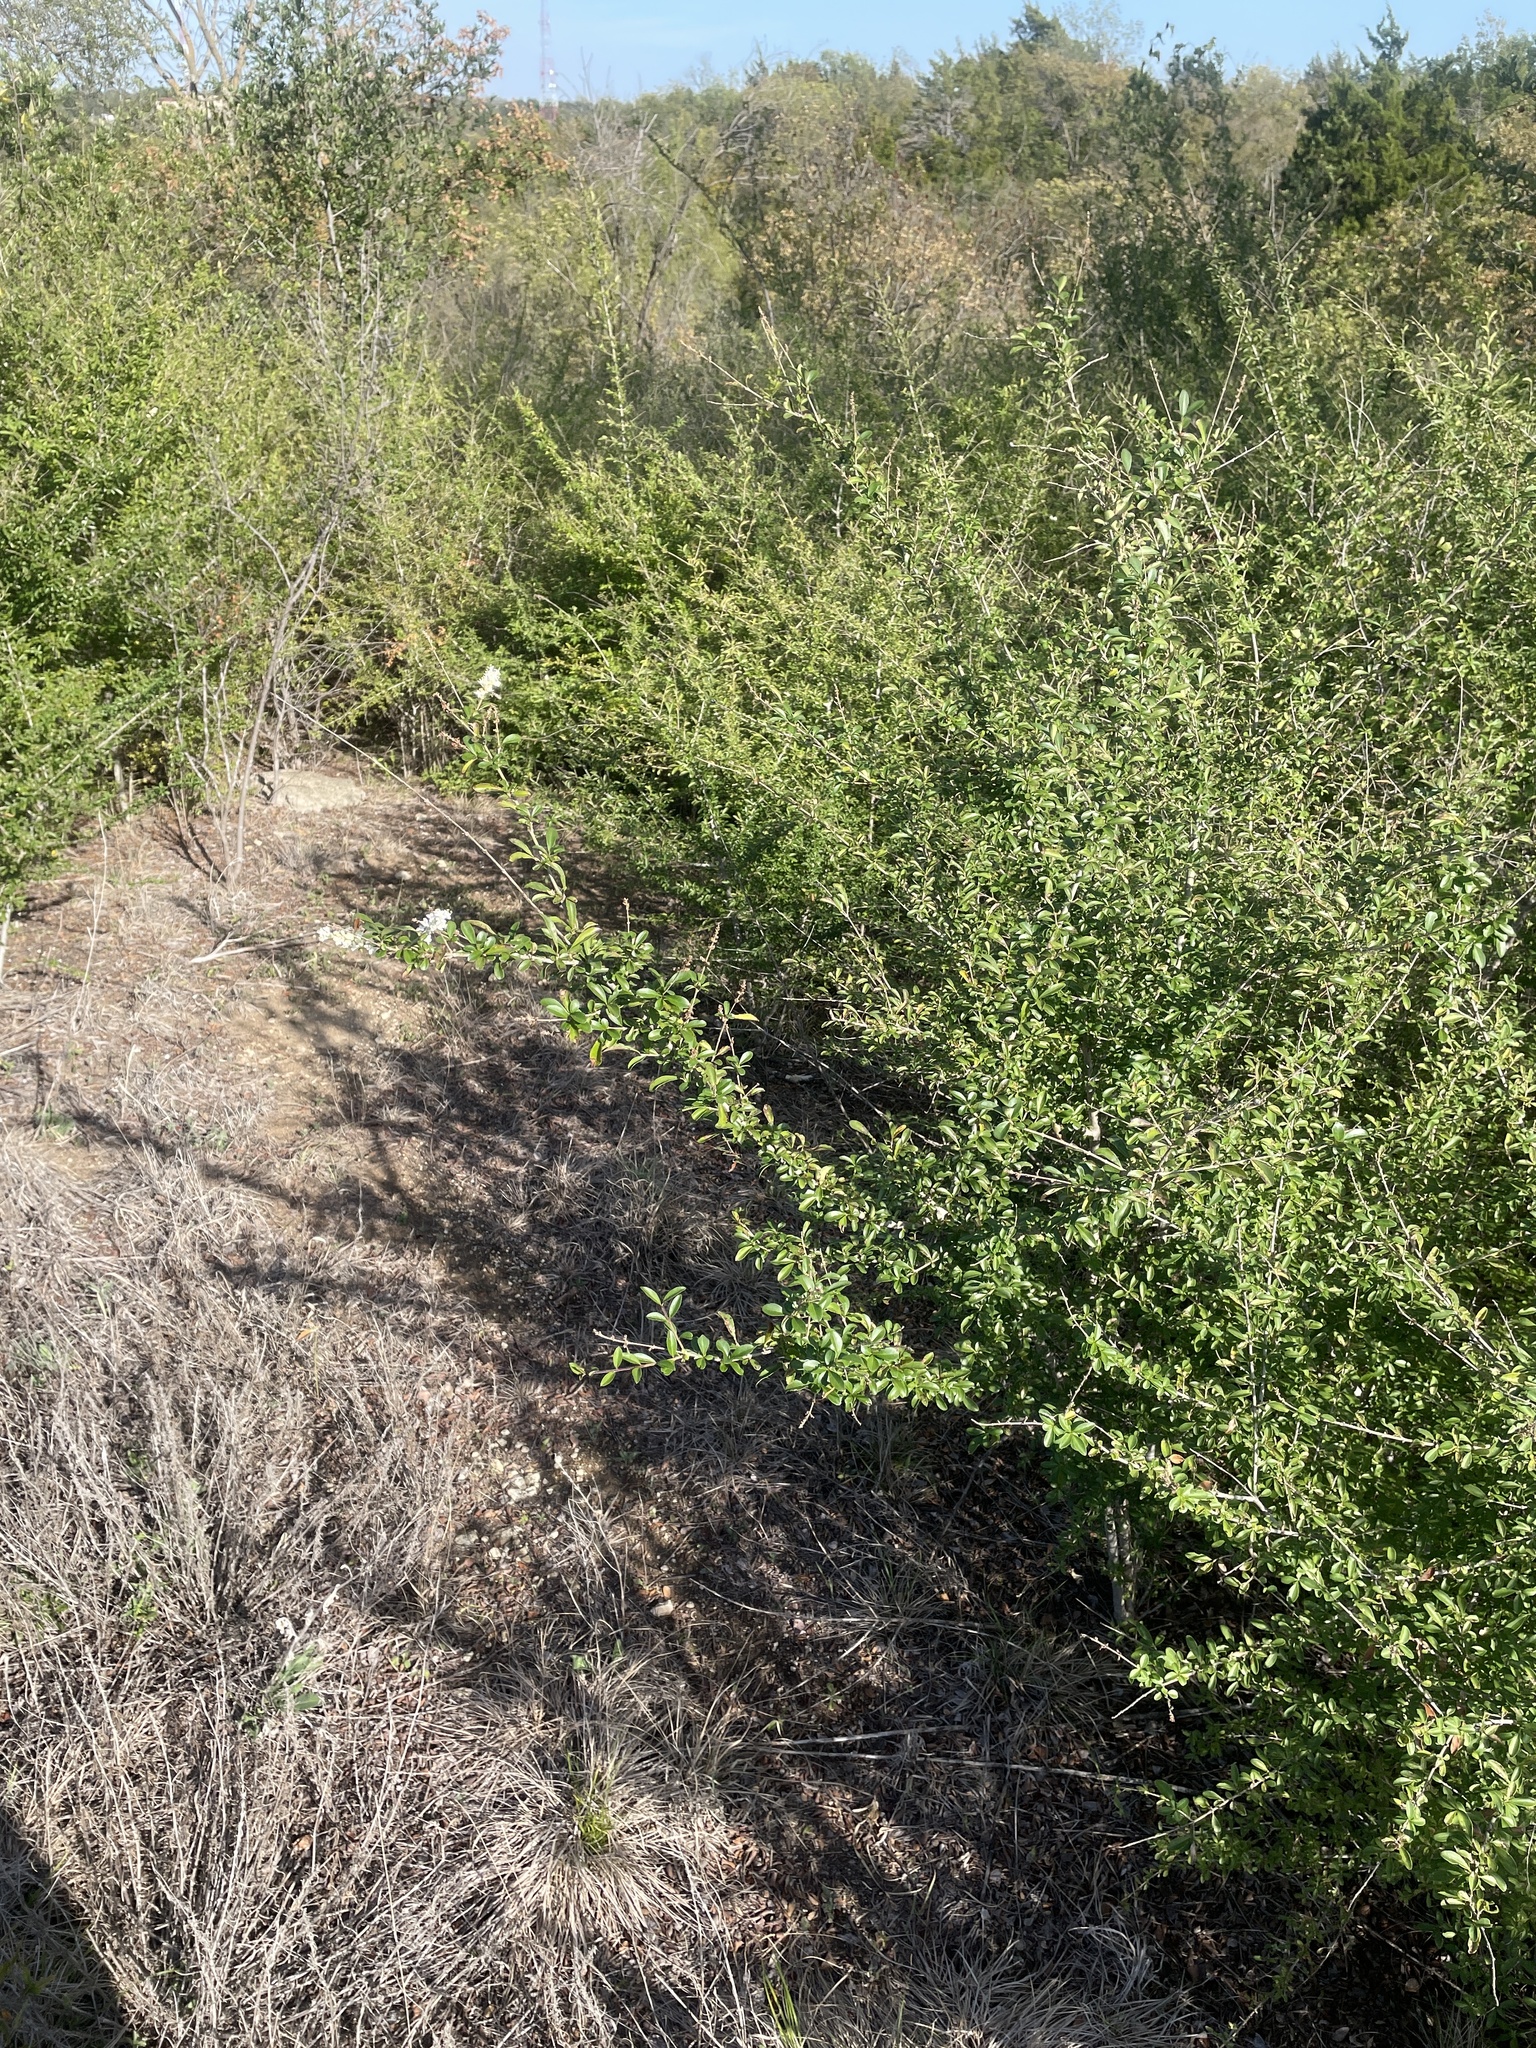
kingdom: Plantae
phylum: Tracheophyta
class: Magnoliopsida
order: Lamiales
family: Oleaceae
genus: Ligustrum
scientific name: Ligustrum quihoui
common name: Waxyleaf privet
